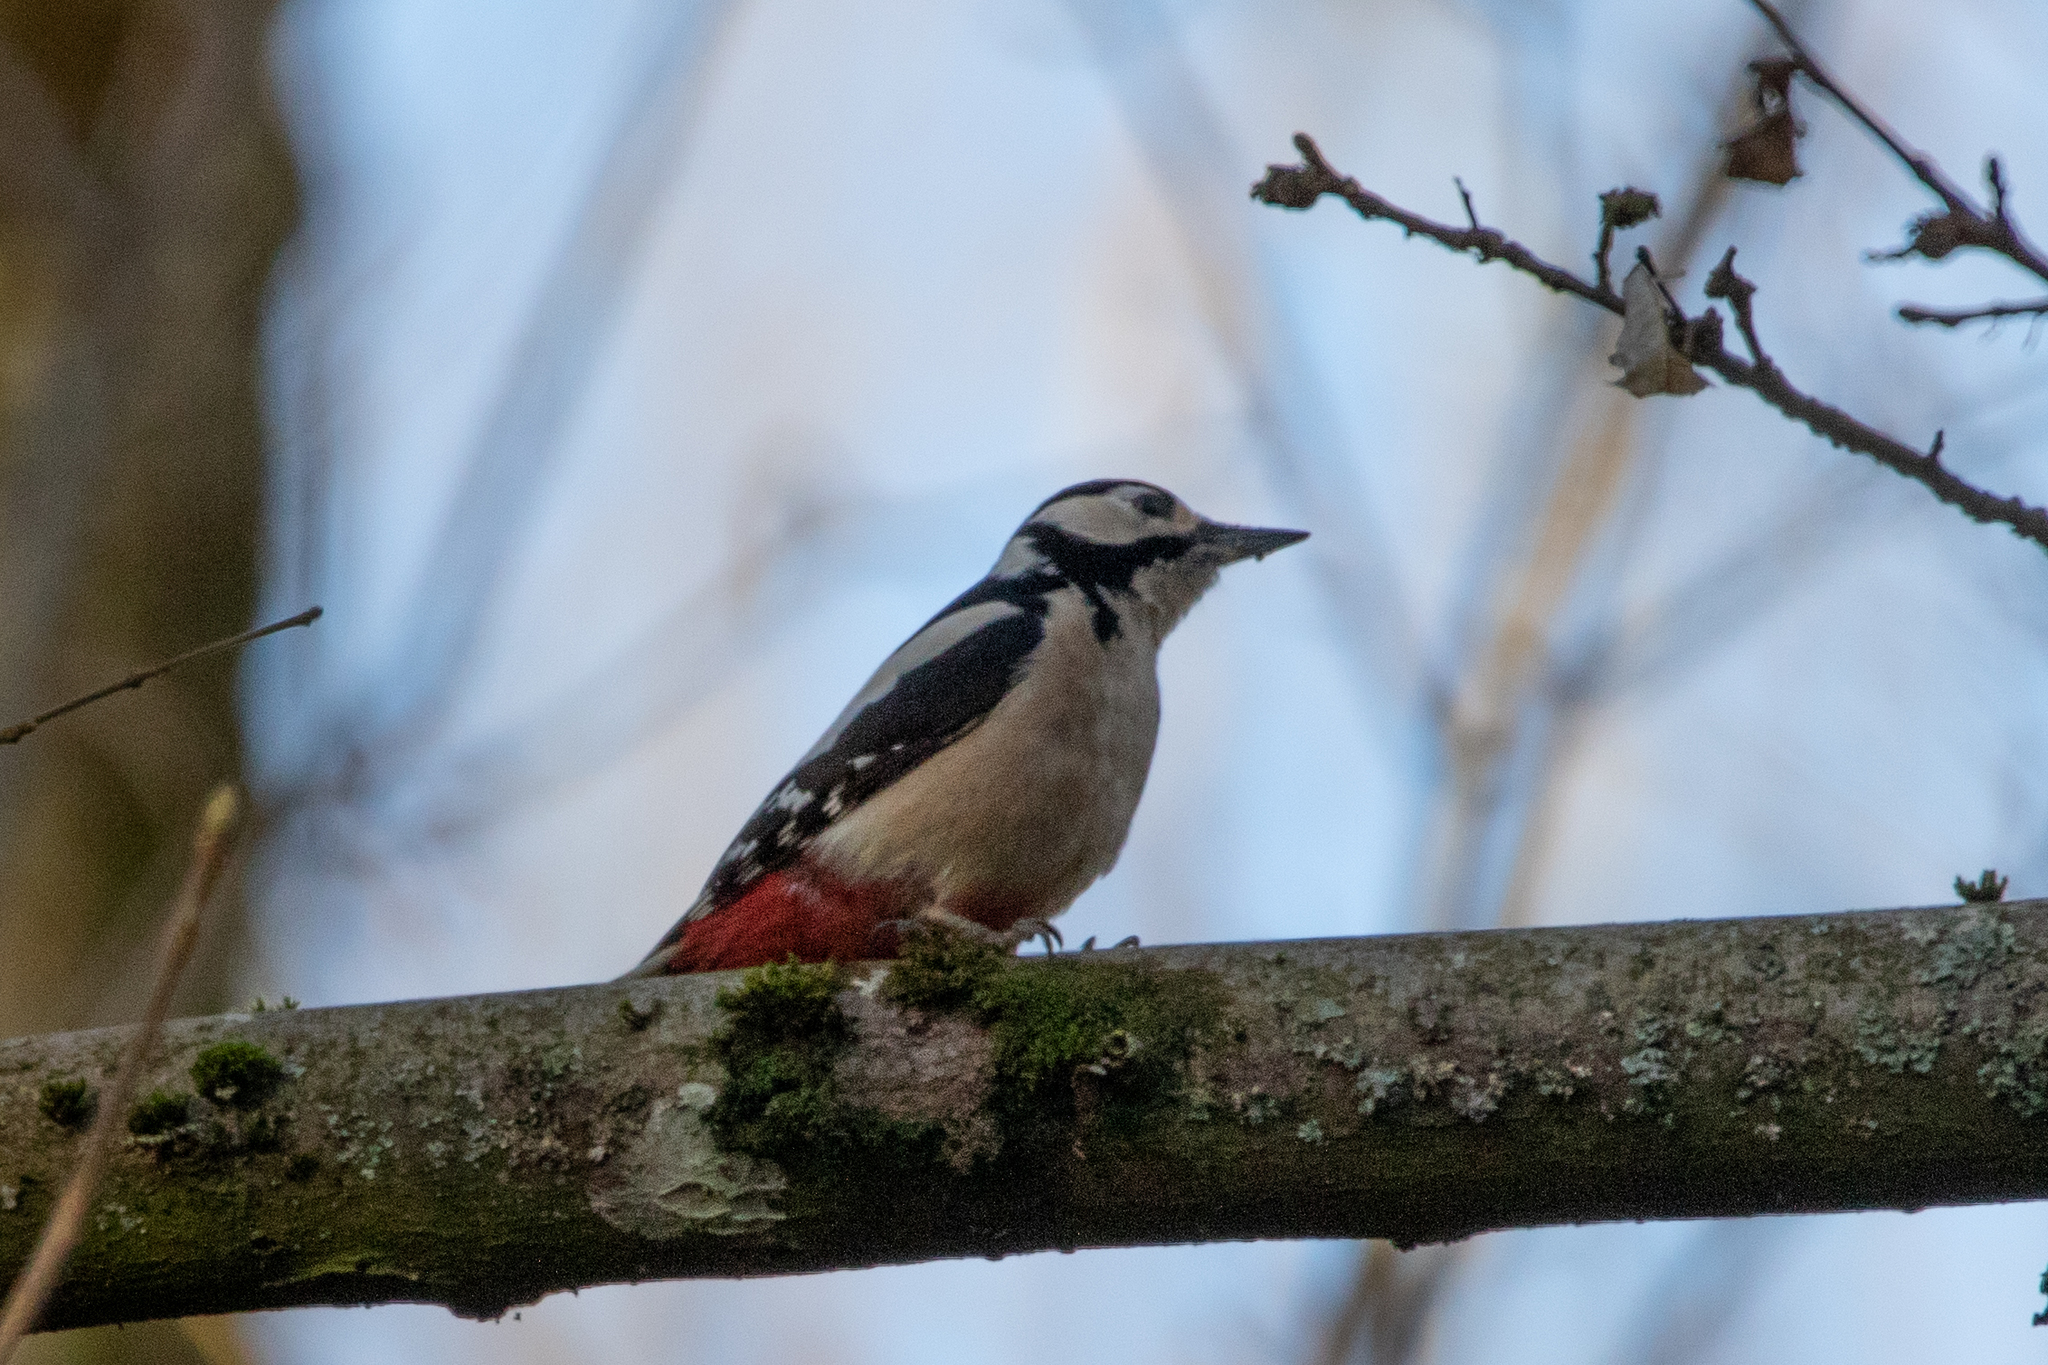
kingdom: Animalia
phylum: Chordata
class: Aves
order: Piciformes
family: Picidae
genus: Dendrocopos
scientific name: Dendrocopos major
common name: Great spotted woodpecker
